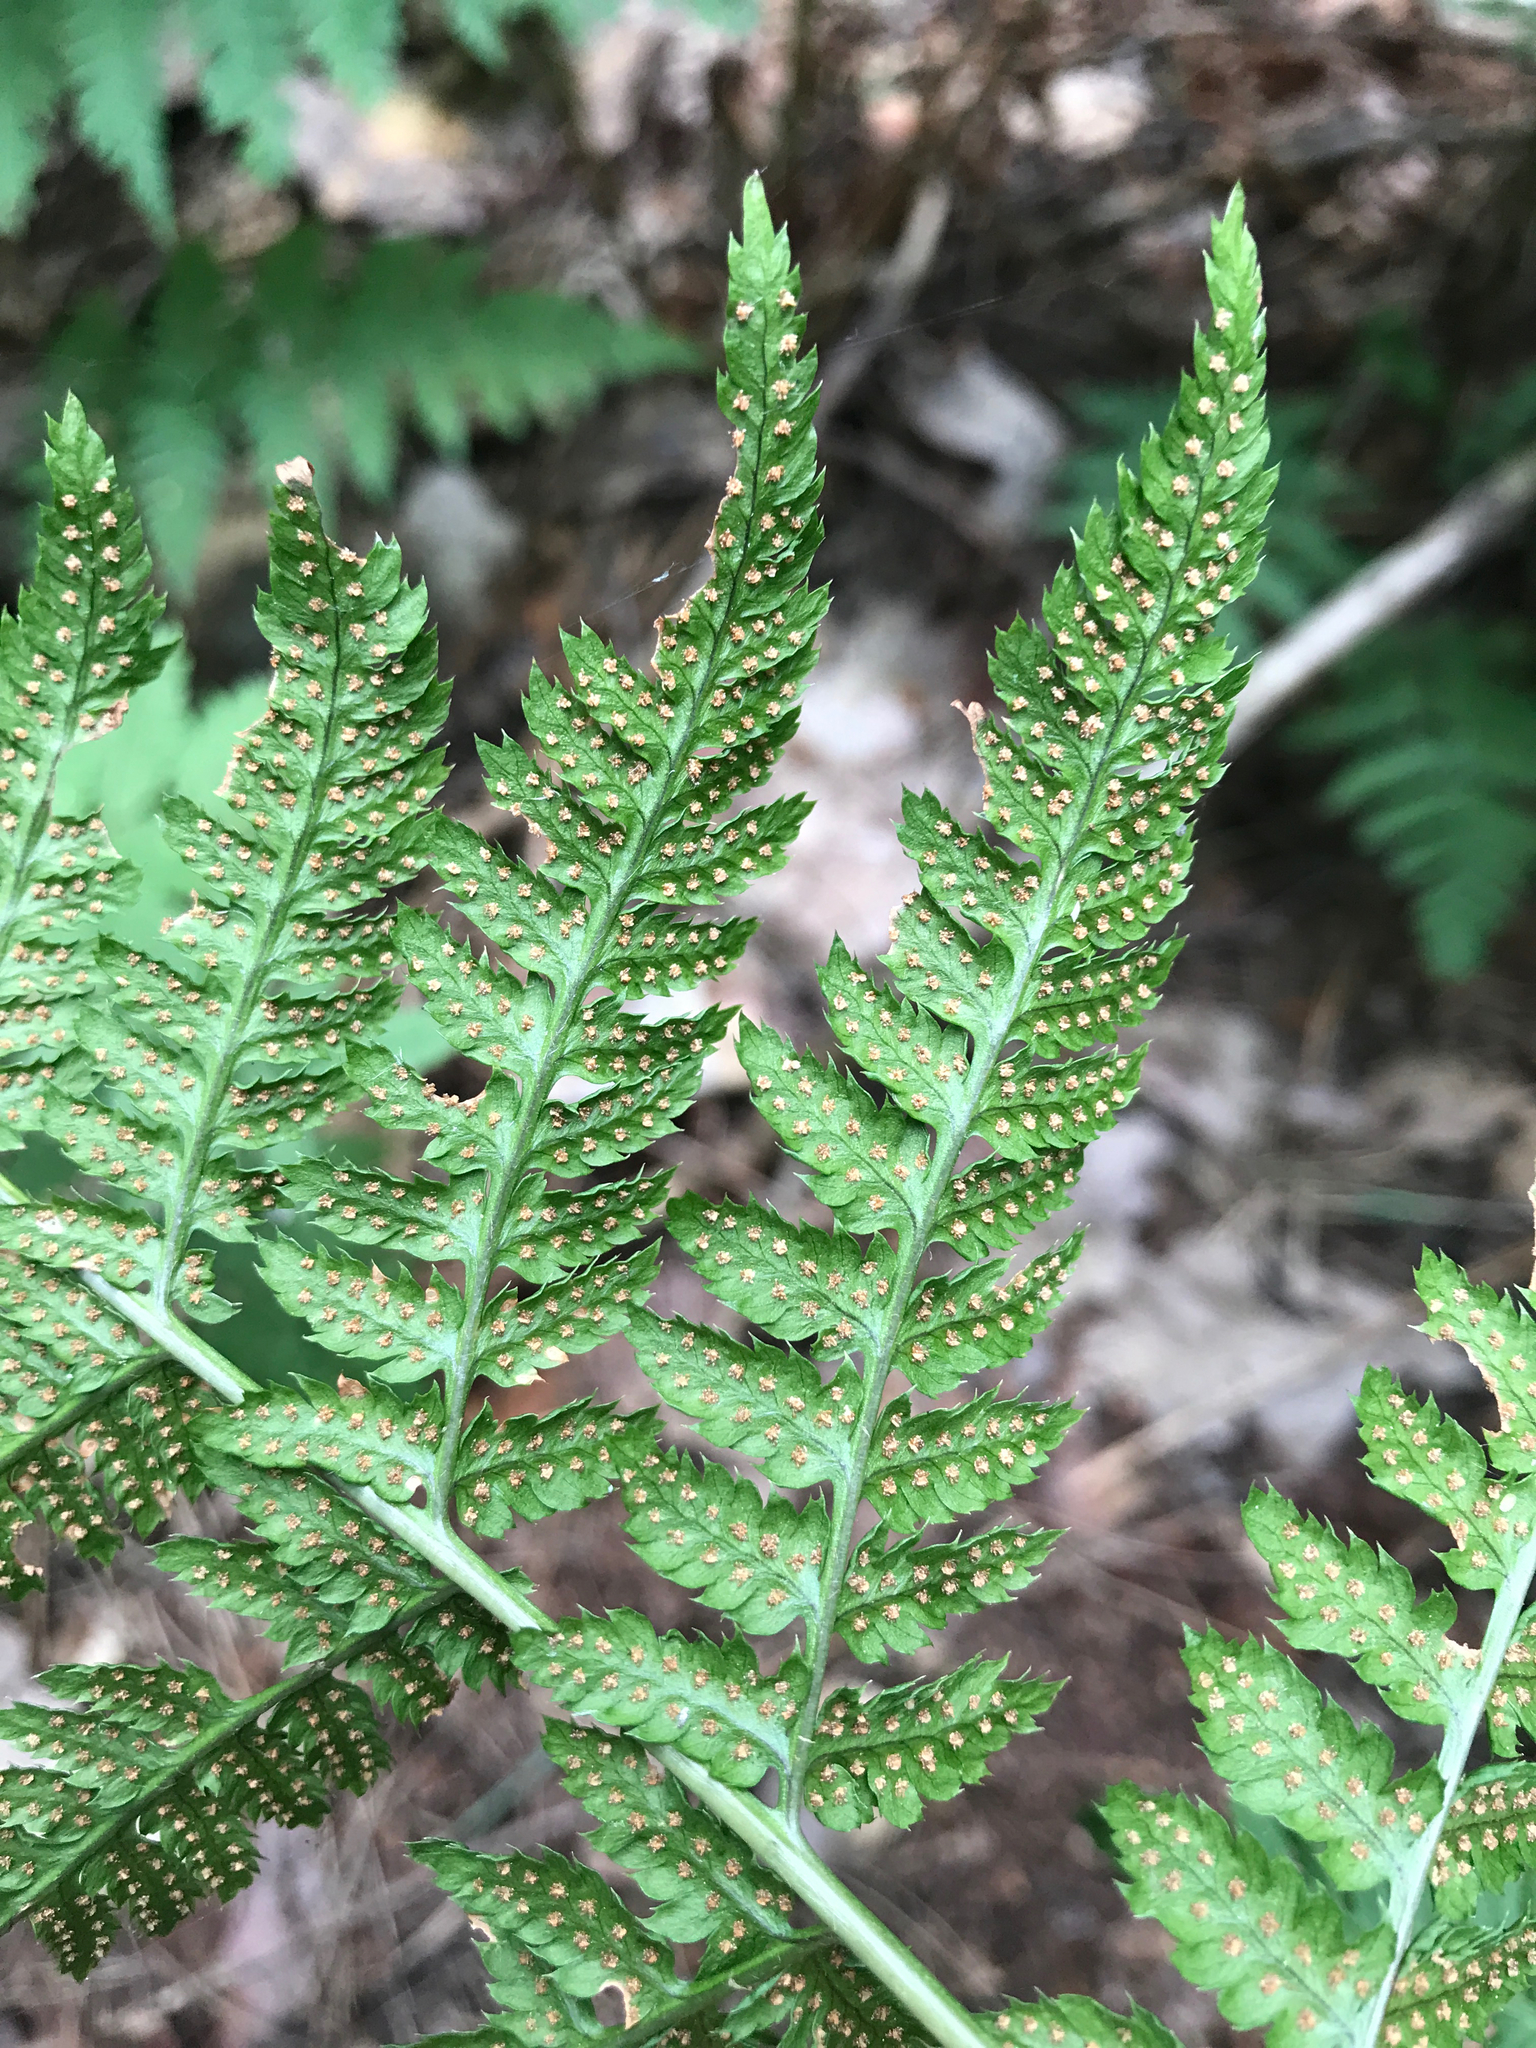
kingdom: Plantae
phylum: Tracheophyta
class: Polypodiopsida
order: Polypodiales
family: Dryopteridaceae
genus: Dryopteris
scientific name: Dryopteris carthusiana
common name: Narrow buckler-fern
